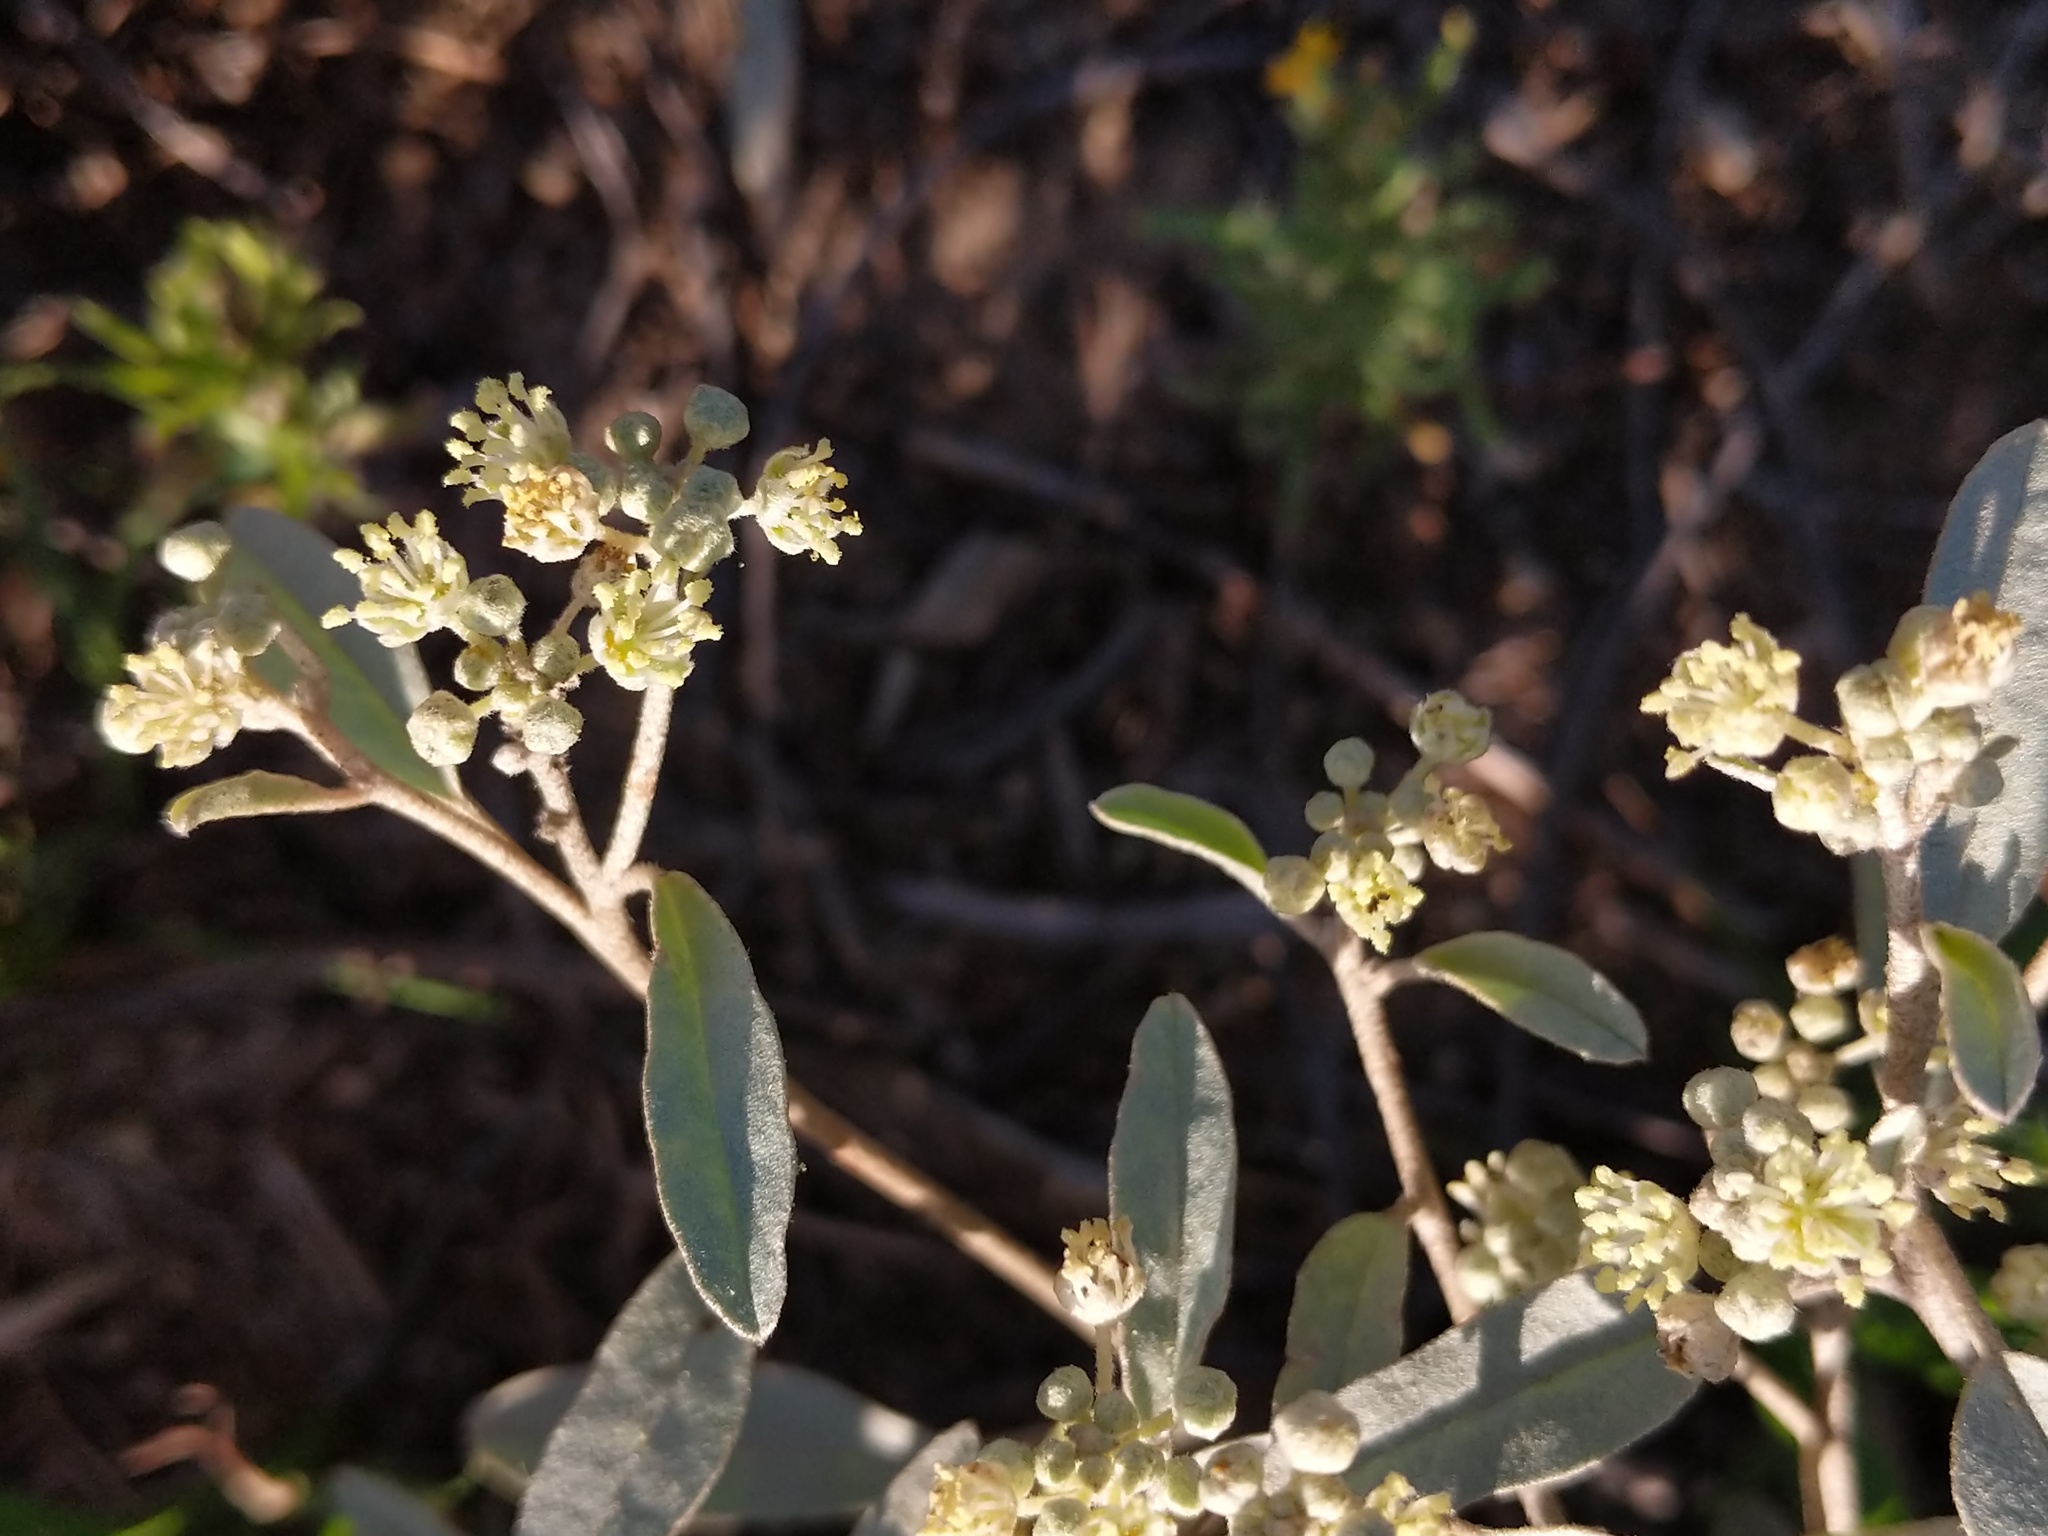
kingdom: Plantae
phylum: Tracheophyta
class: Magnoliopsida
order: Malpighiales
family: Euphorbiaceae
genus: Croton
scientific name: Croton californicus
